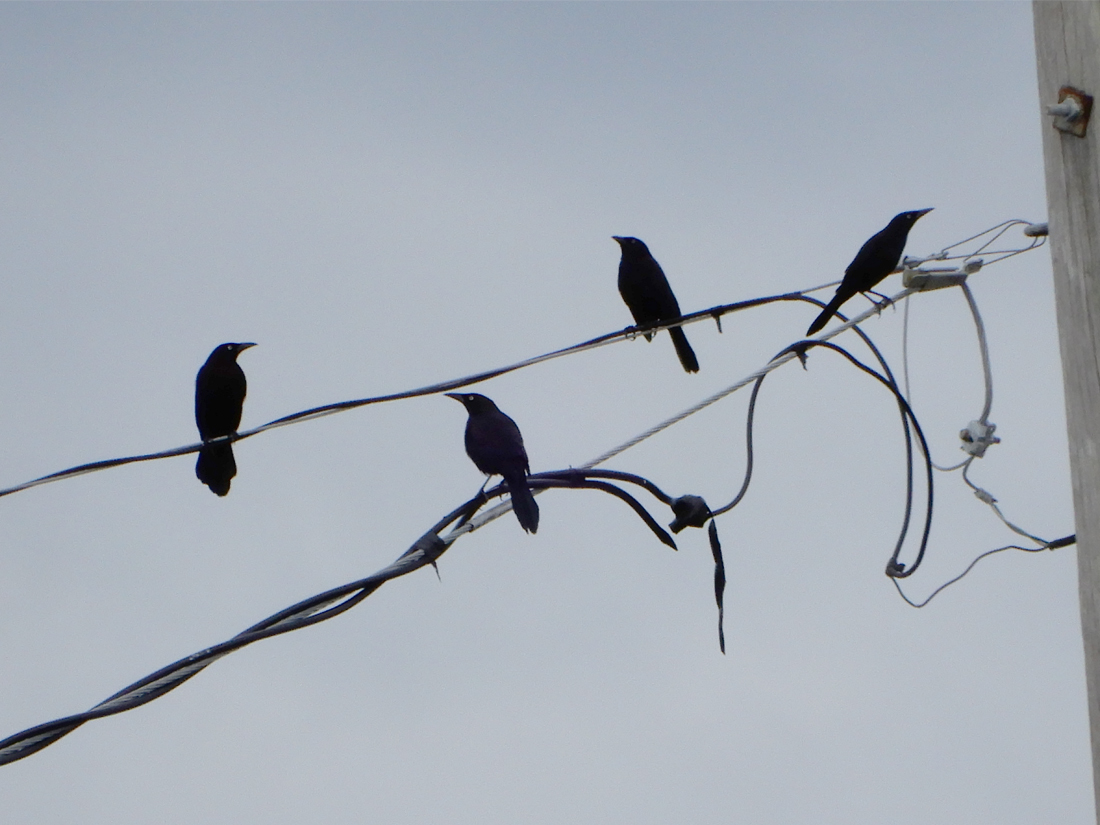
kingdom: Animalia
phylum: Chordata
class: Aves
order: Passeriformes
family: Icteridae
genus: Quiscalus
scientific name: Quiscalus quiscula
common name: Common grackle
